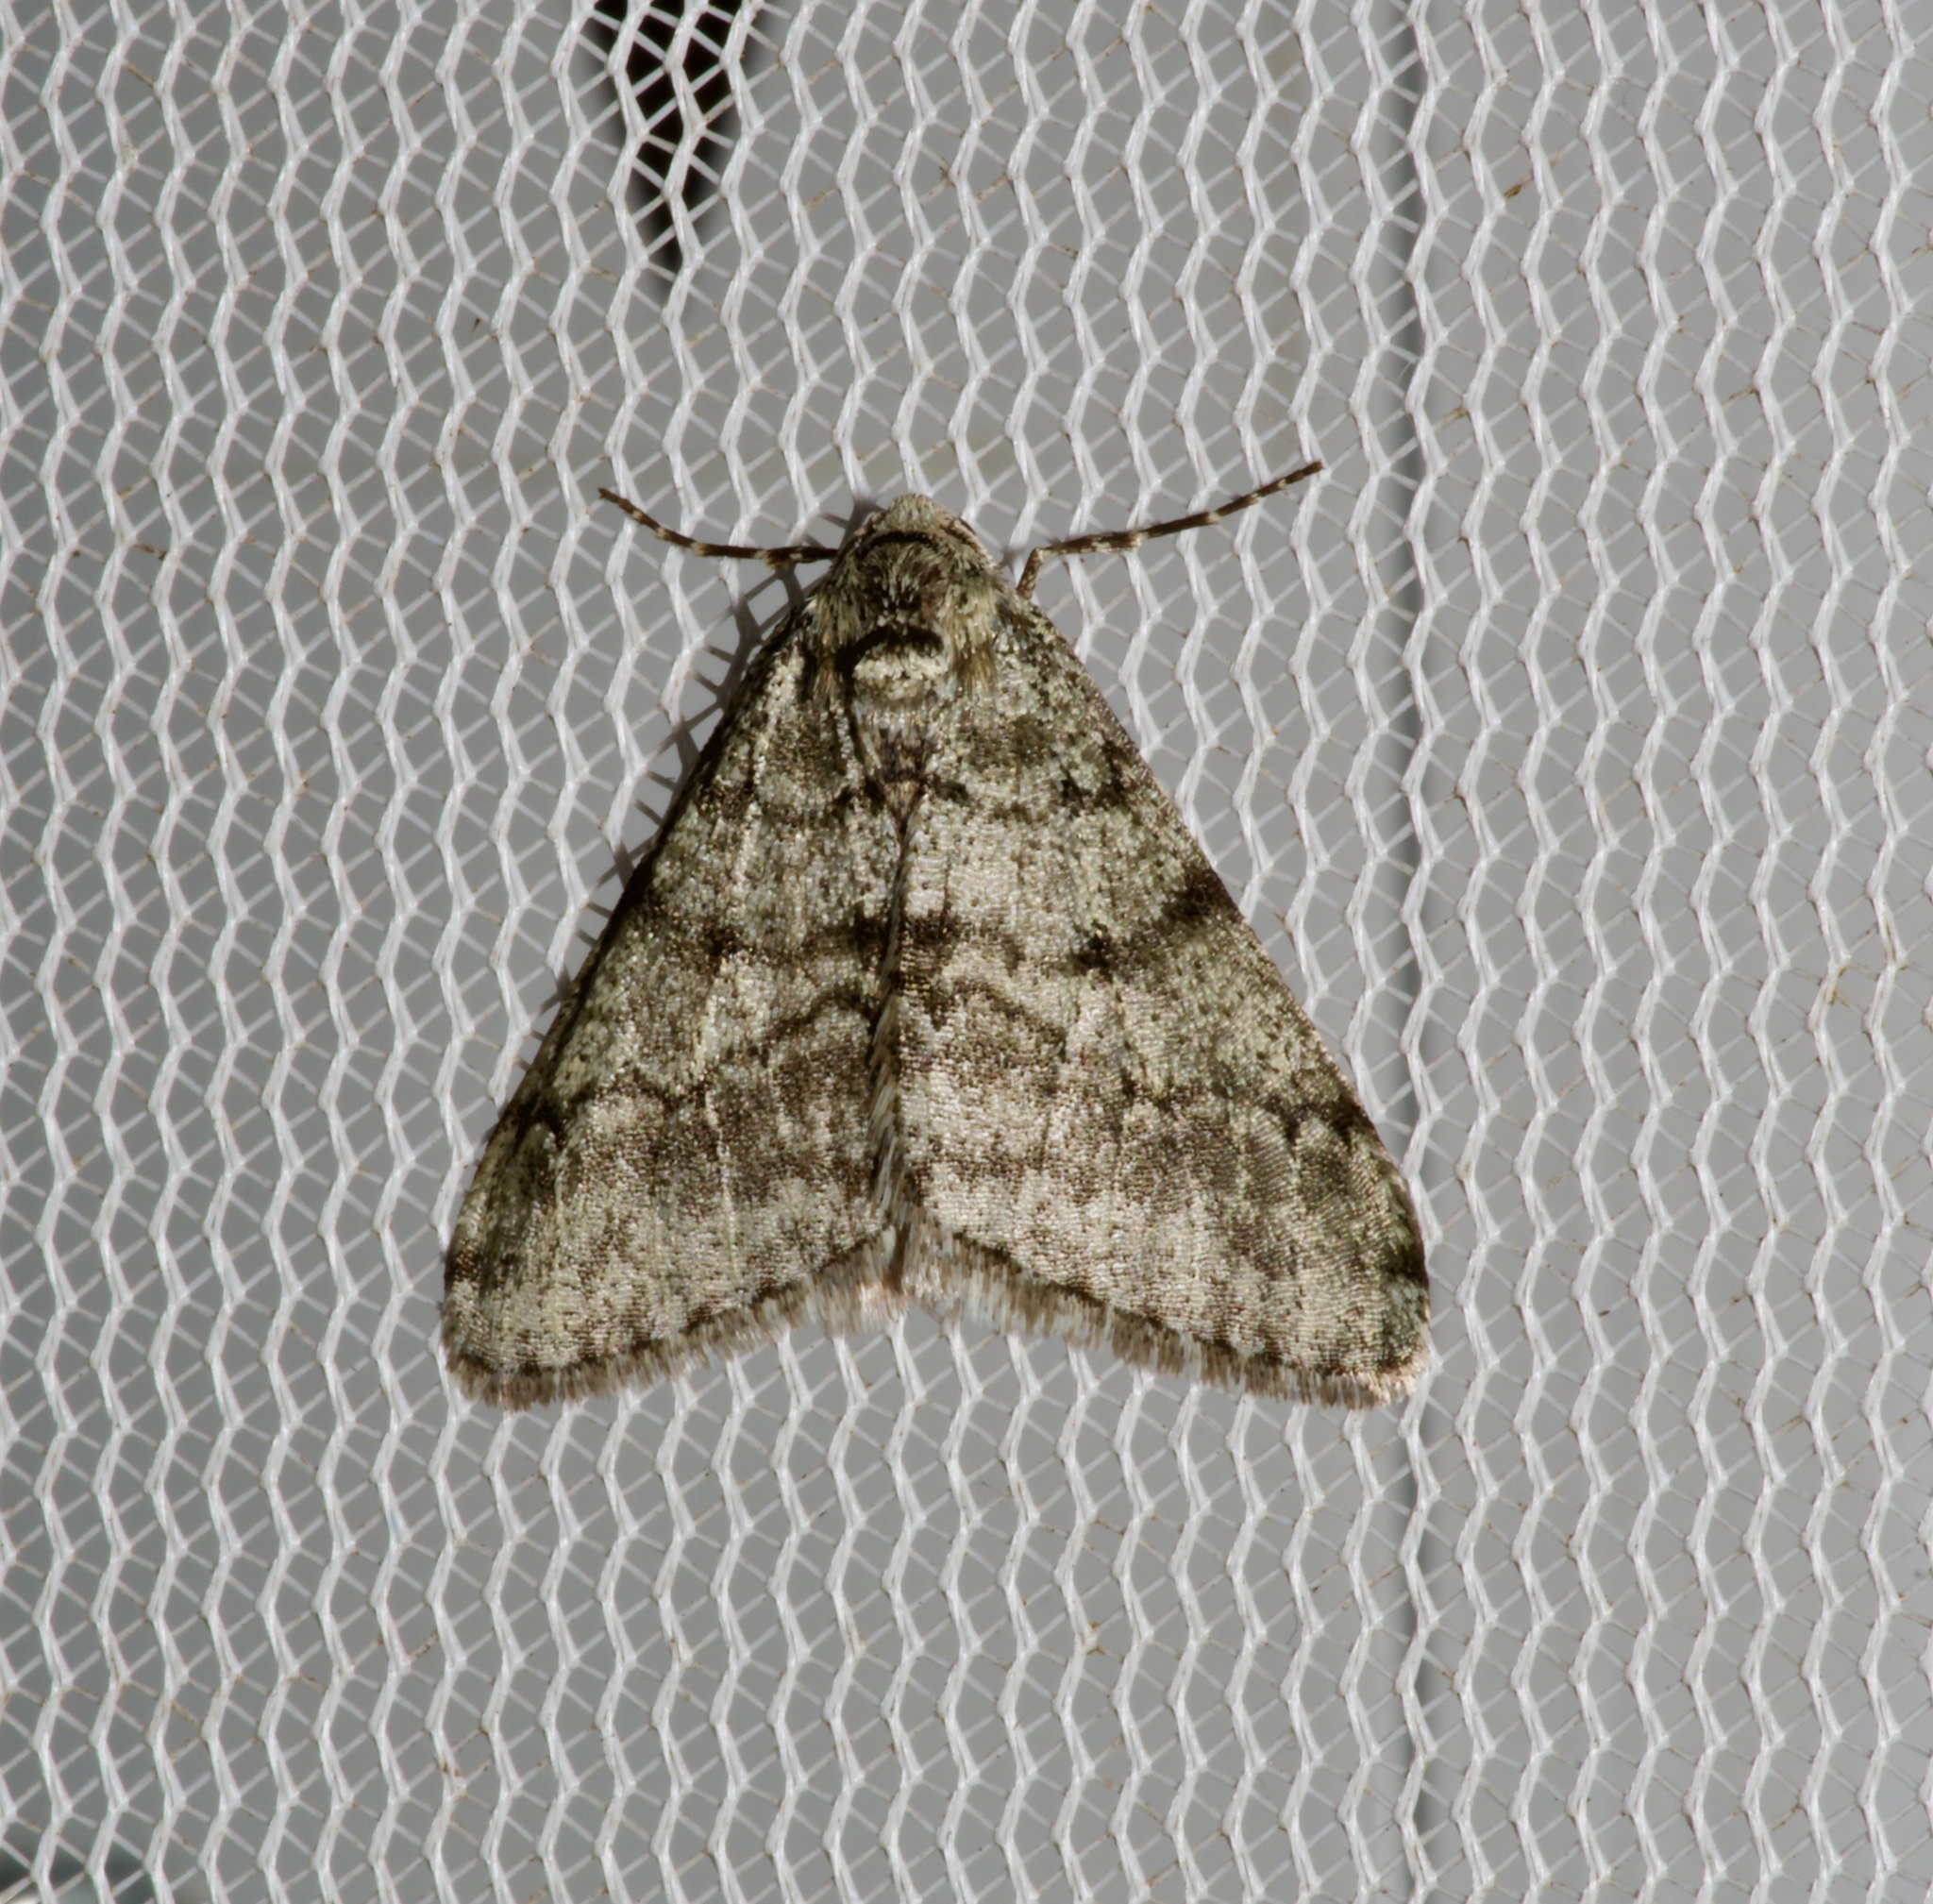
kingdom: Animalia
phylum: Arthropoda
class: Insecta
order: Lepidoptera
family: Geometridae
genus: Phigalia
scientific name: Phigalia strigataria
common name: Small phigalia
